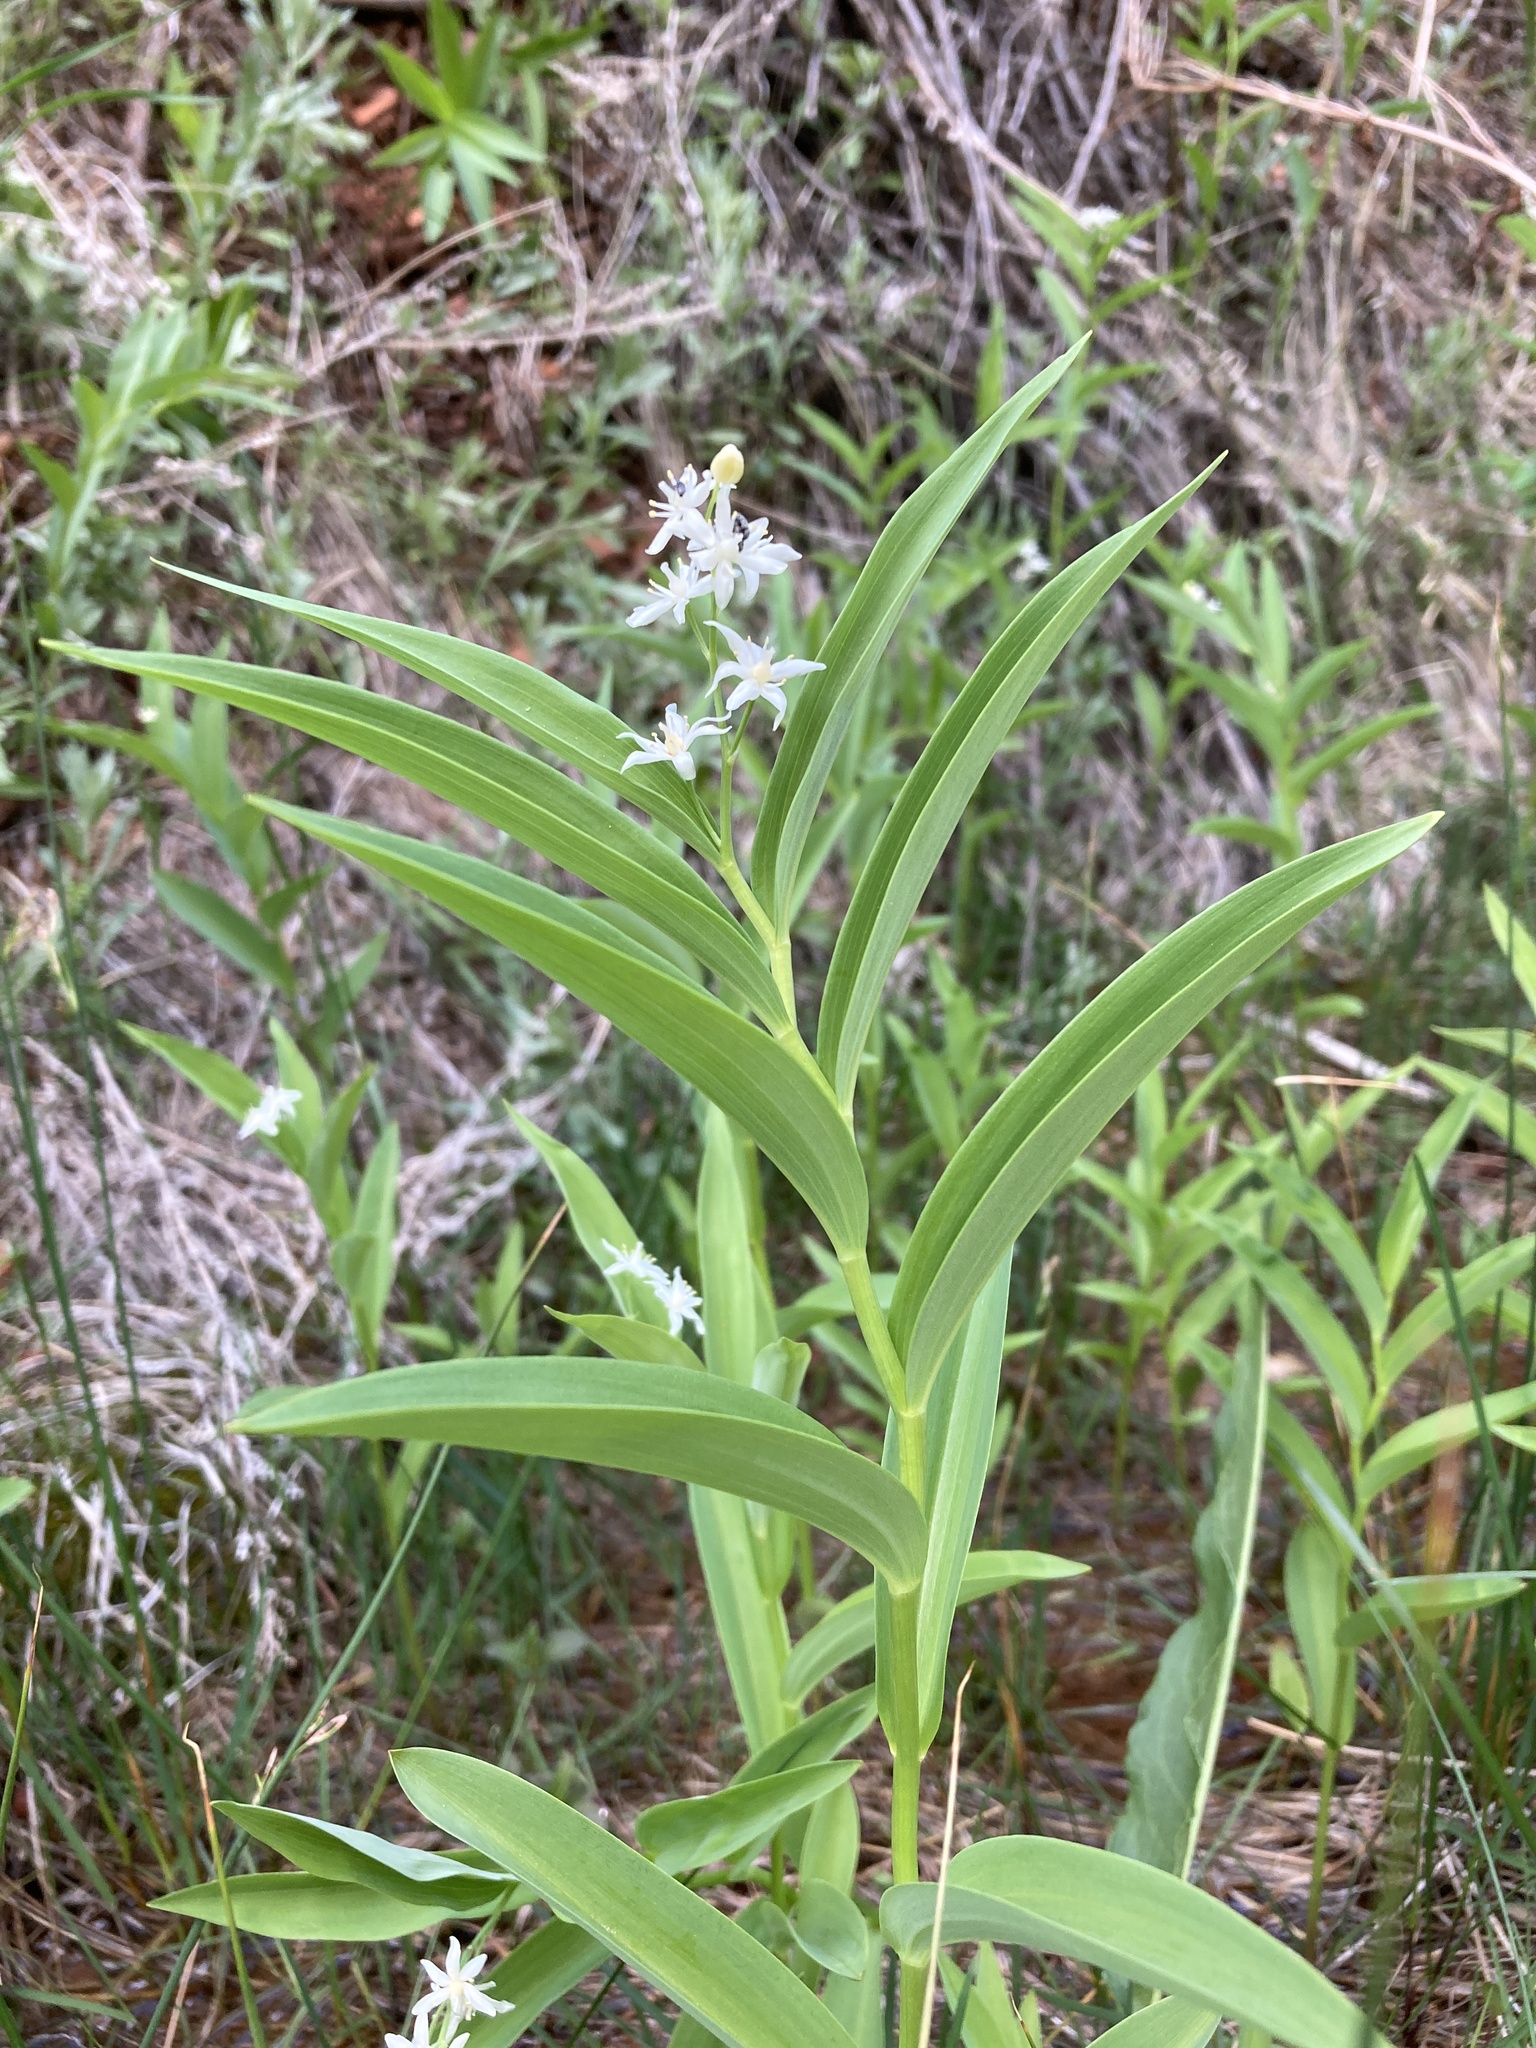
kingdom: Plantae
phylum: Tracheophyta
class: Liliopsida
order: Asparagales
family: Asparagaceae
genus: Maianthemum
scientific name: Maianthemum stellatum
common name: Little false solomon's seal
